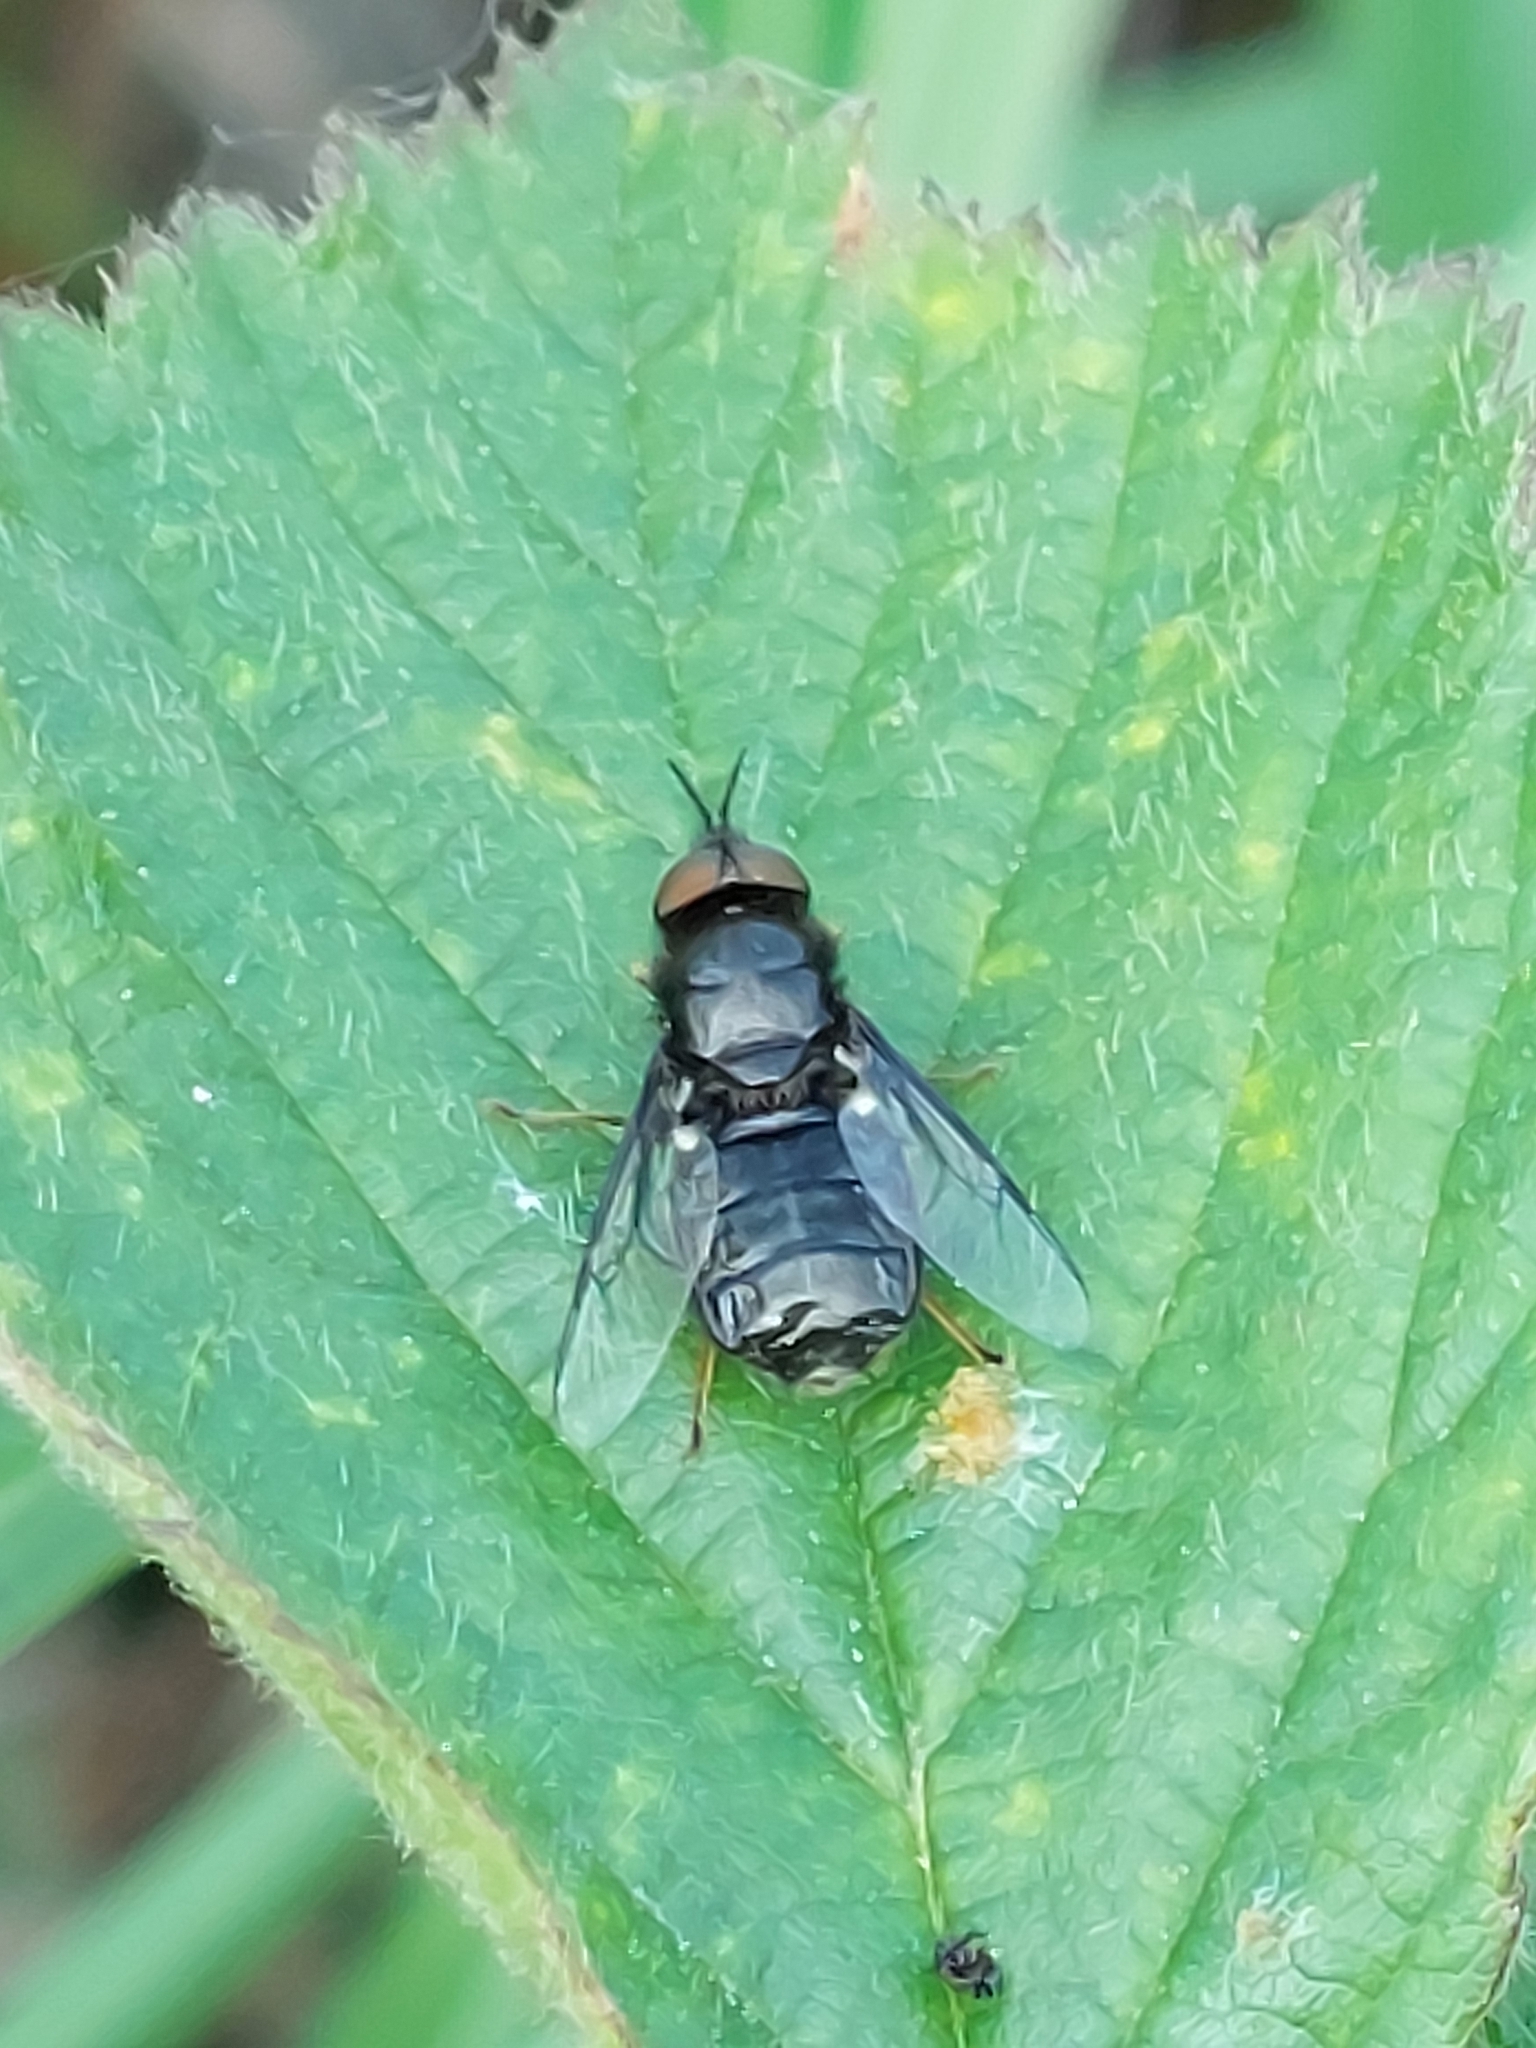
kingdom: Animalia
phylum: Arthropoda
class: Insecta
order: Diptera
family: Stratiomyidae
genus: Odontomyia
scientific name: Odontomyia tigrina
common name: Black colonel
